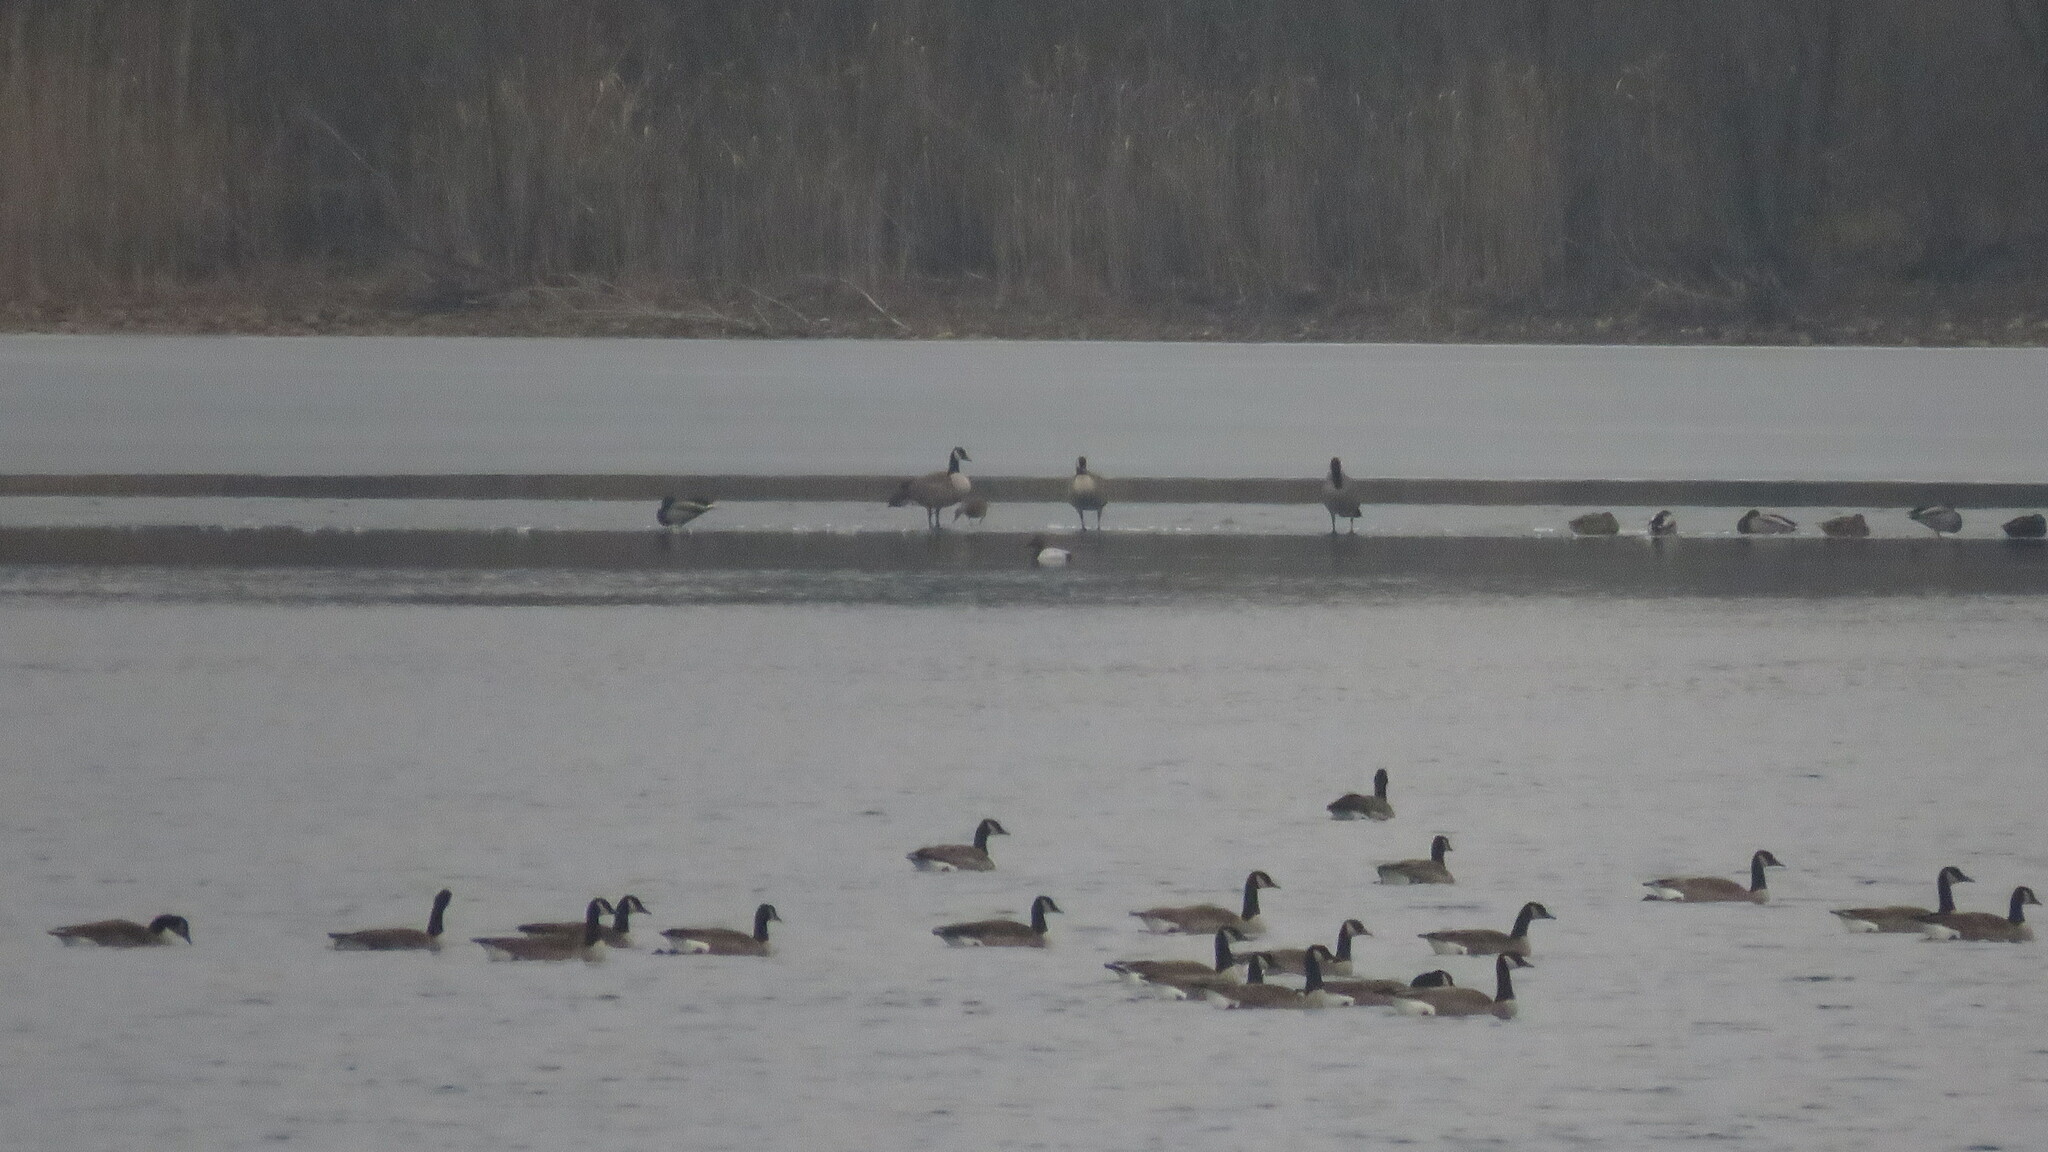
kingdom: Animalia
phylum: Chordata
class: Aves
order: Anseriformes
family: Anatidae
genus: Aythya
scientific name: Aythya valisineria
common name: Canvasback
